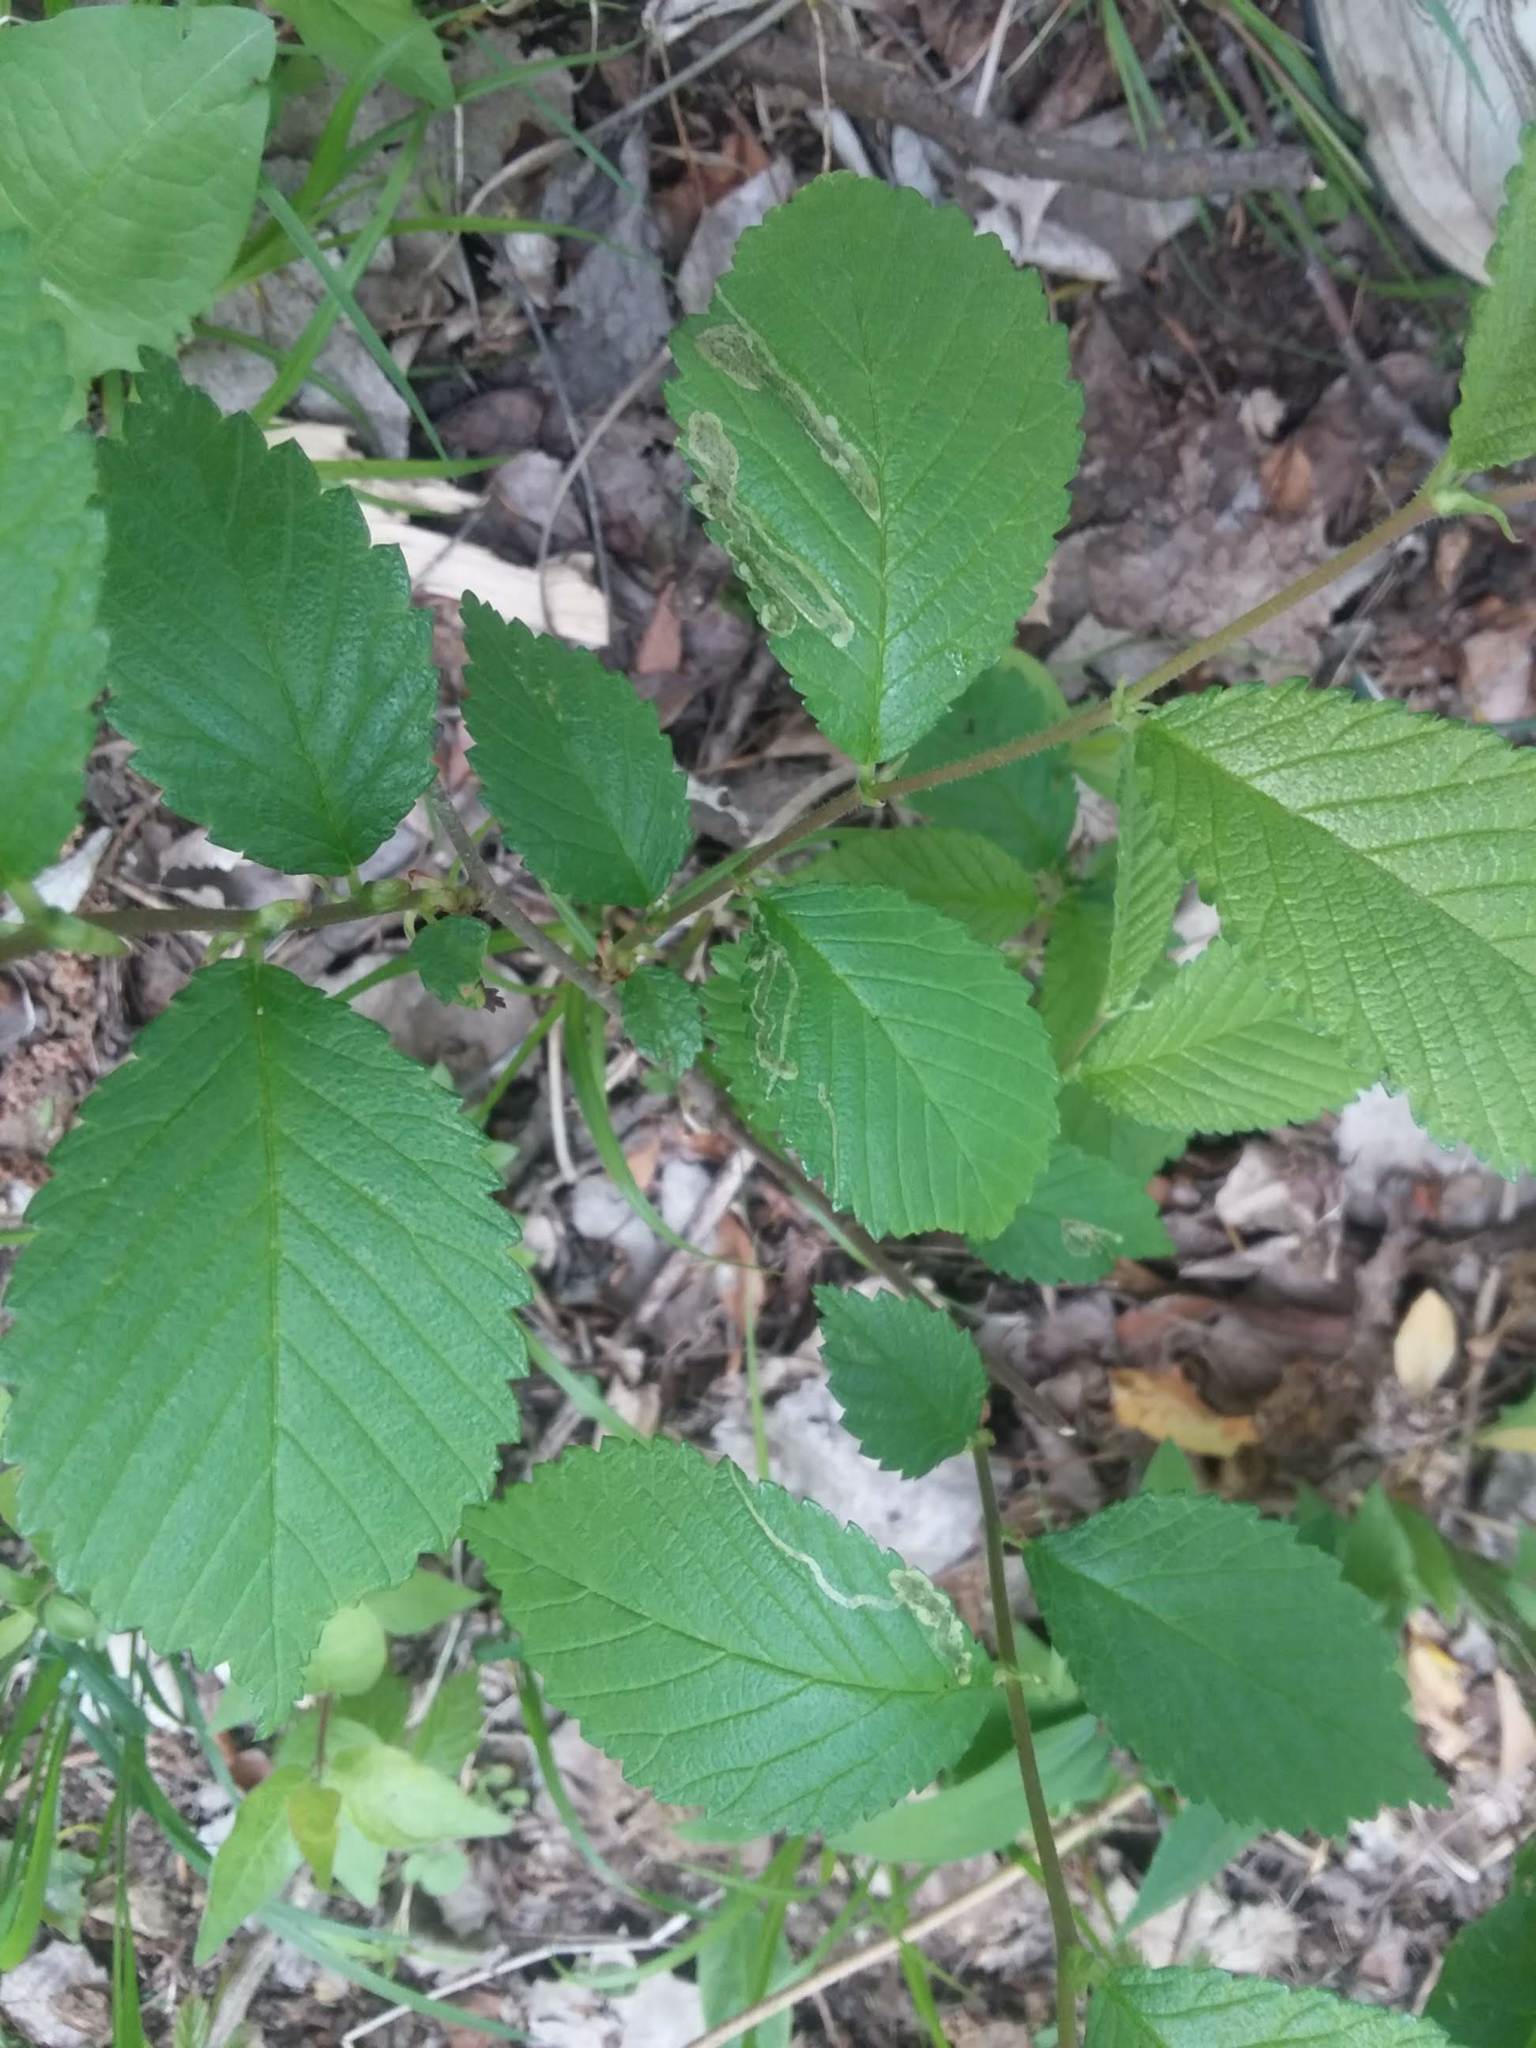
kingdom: Animalia
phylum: Arthropoda
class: Insecta
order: Diptera
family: Agromyzidae
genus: Agromyza
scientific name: Agromyza aristata
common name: Elm agromyzid leafminer
